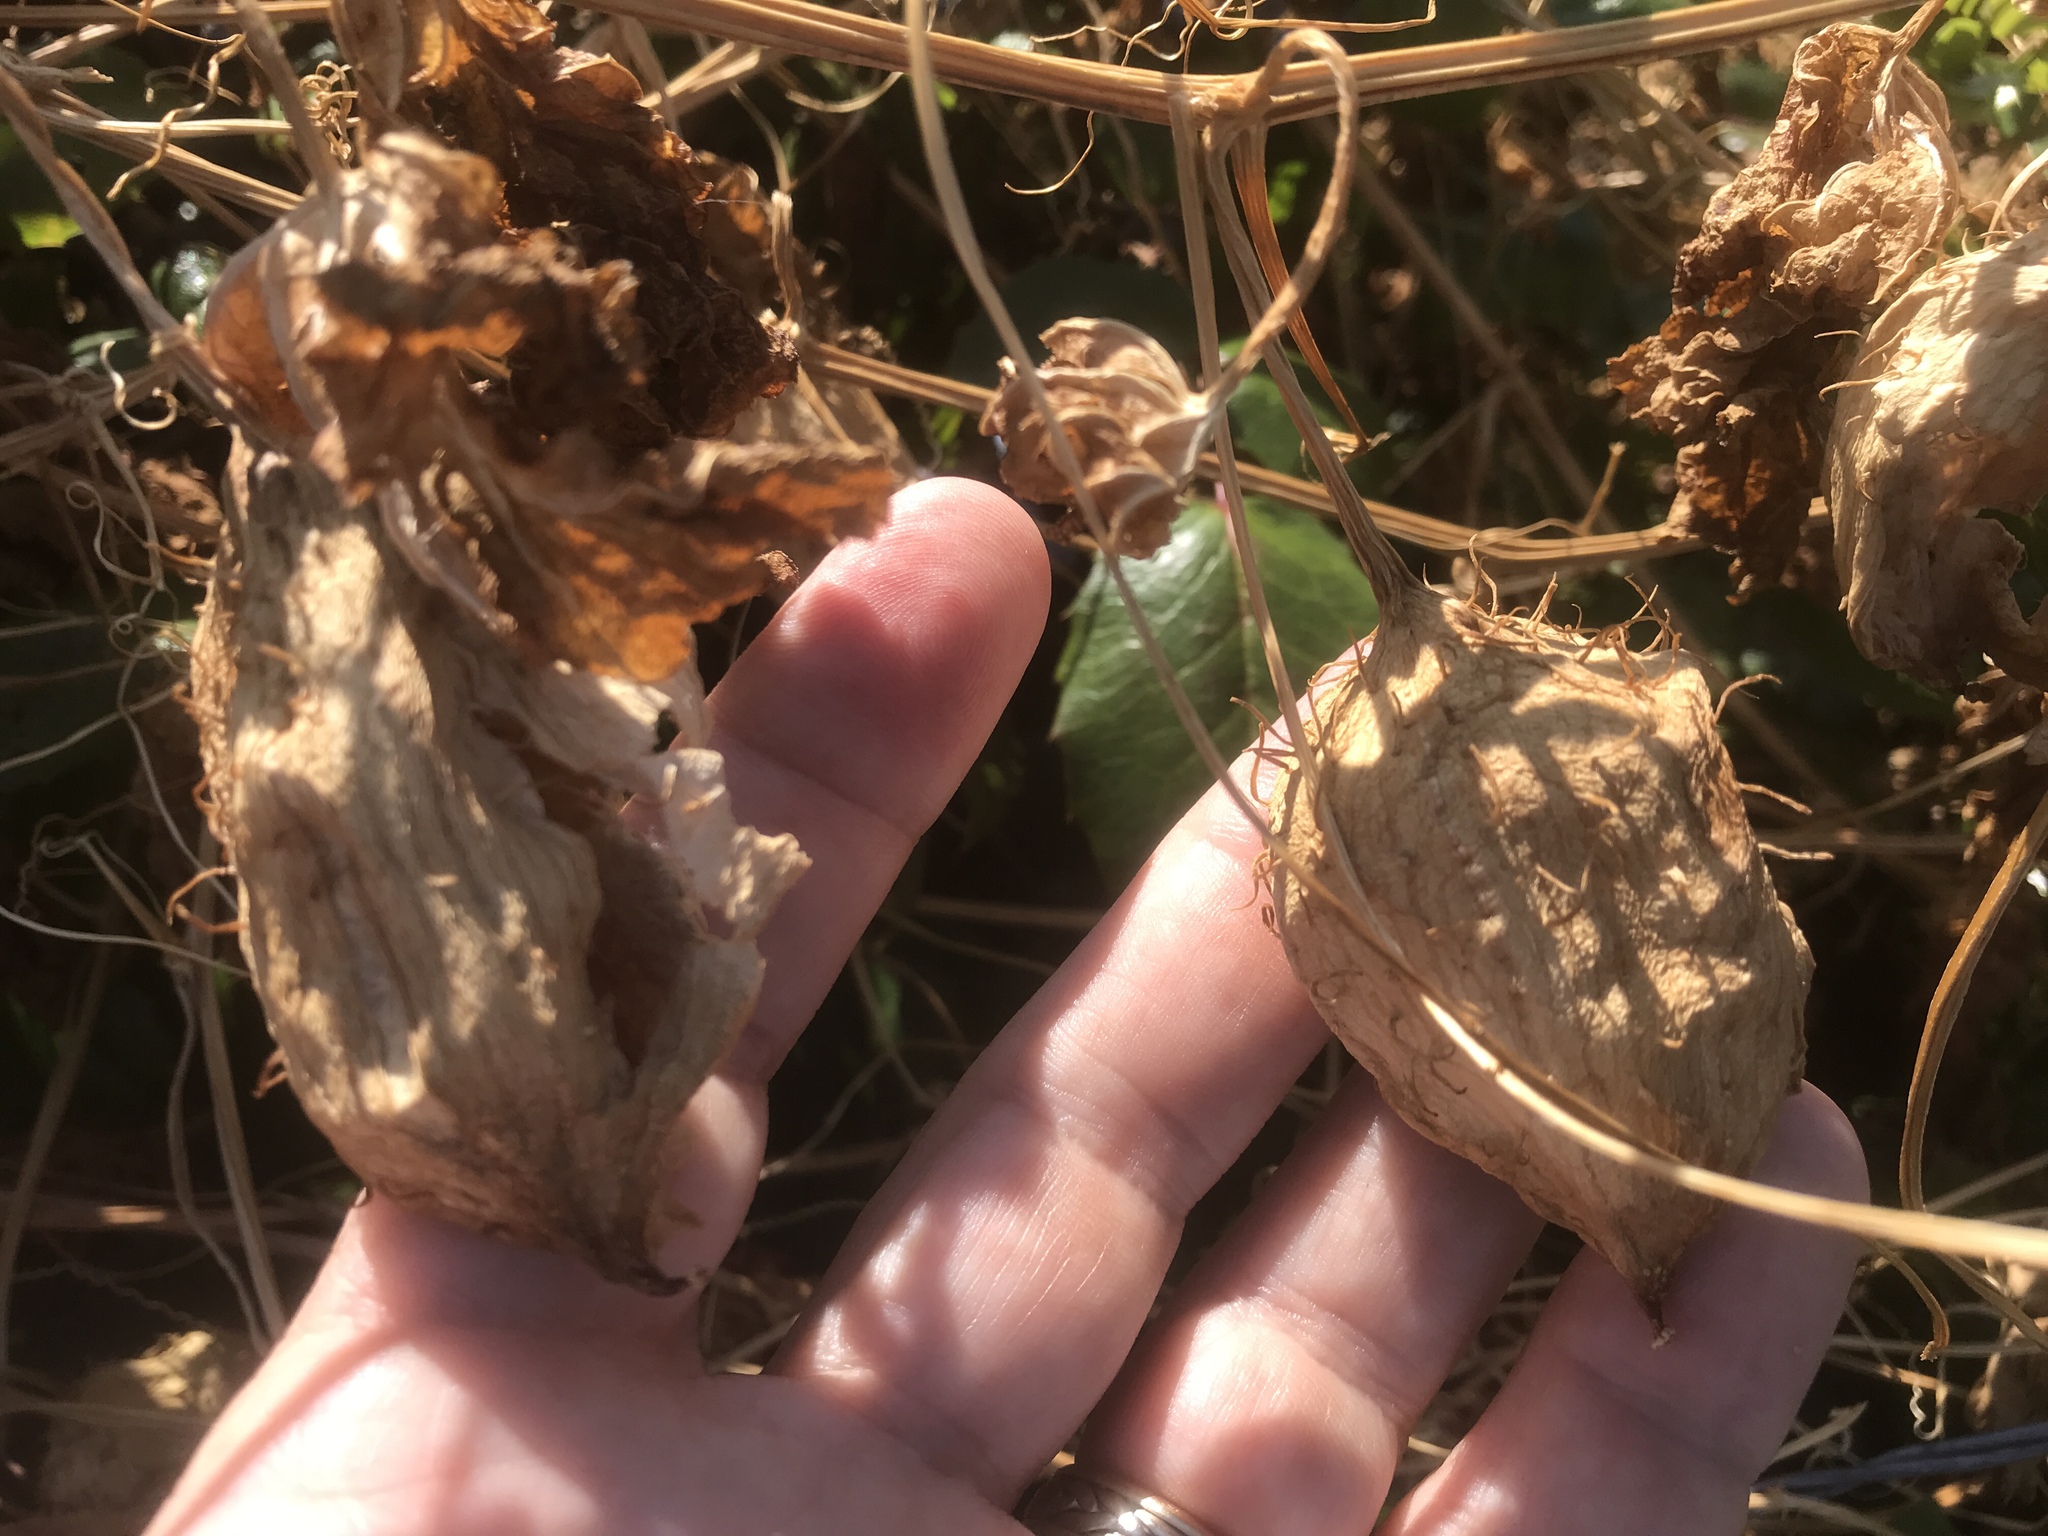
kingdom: Plantae
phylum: Tracheophyta
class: Magnoliopsida
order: Cucurbitales
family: Cucurbitaceae
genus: Marah
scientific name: Marah oregana
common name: Coastal manroot
